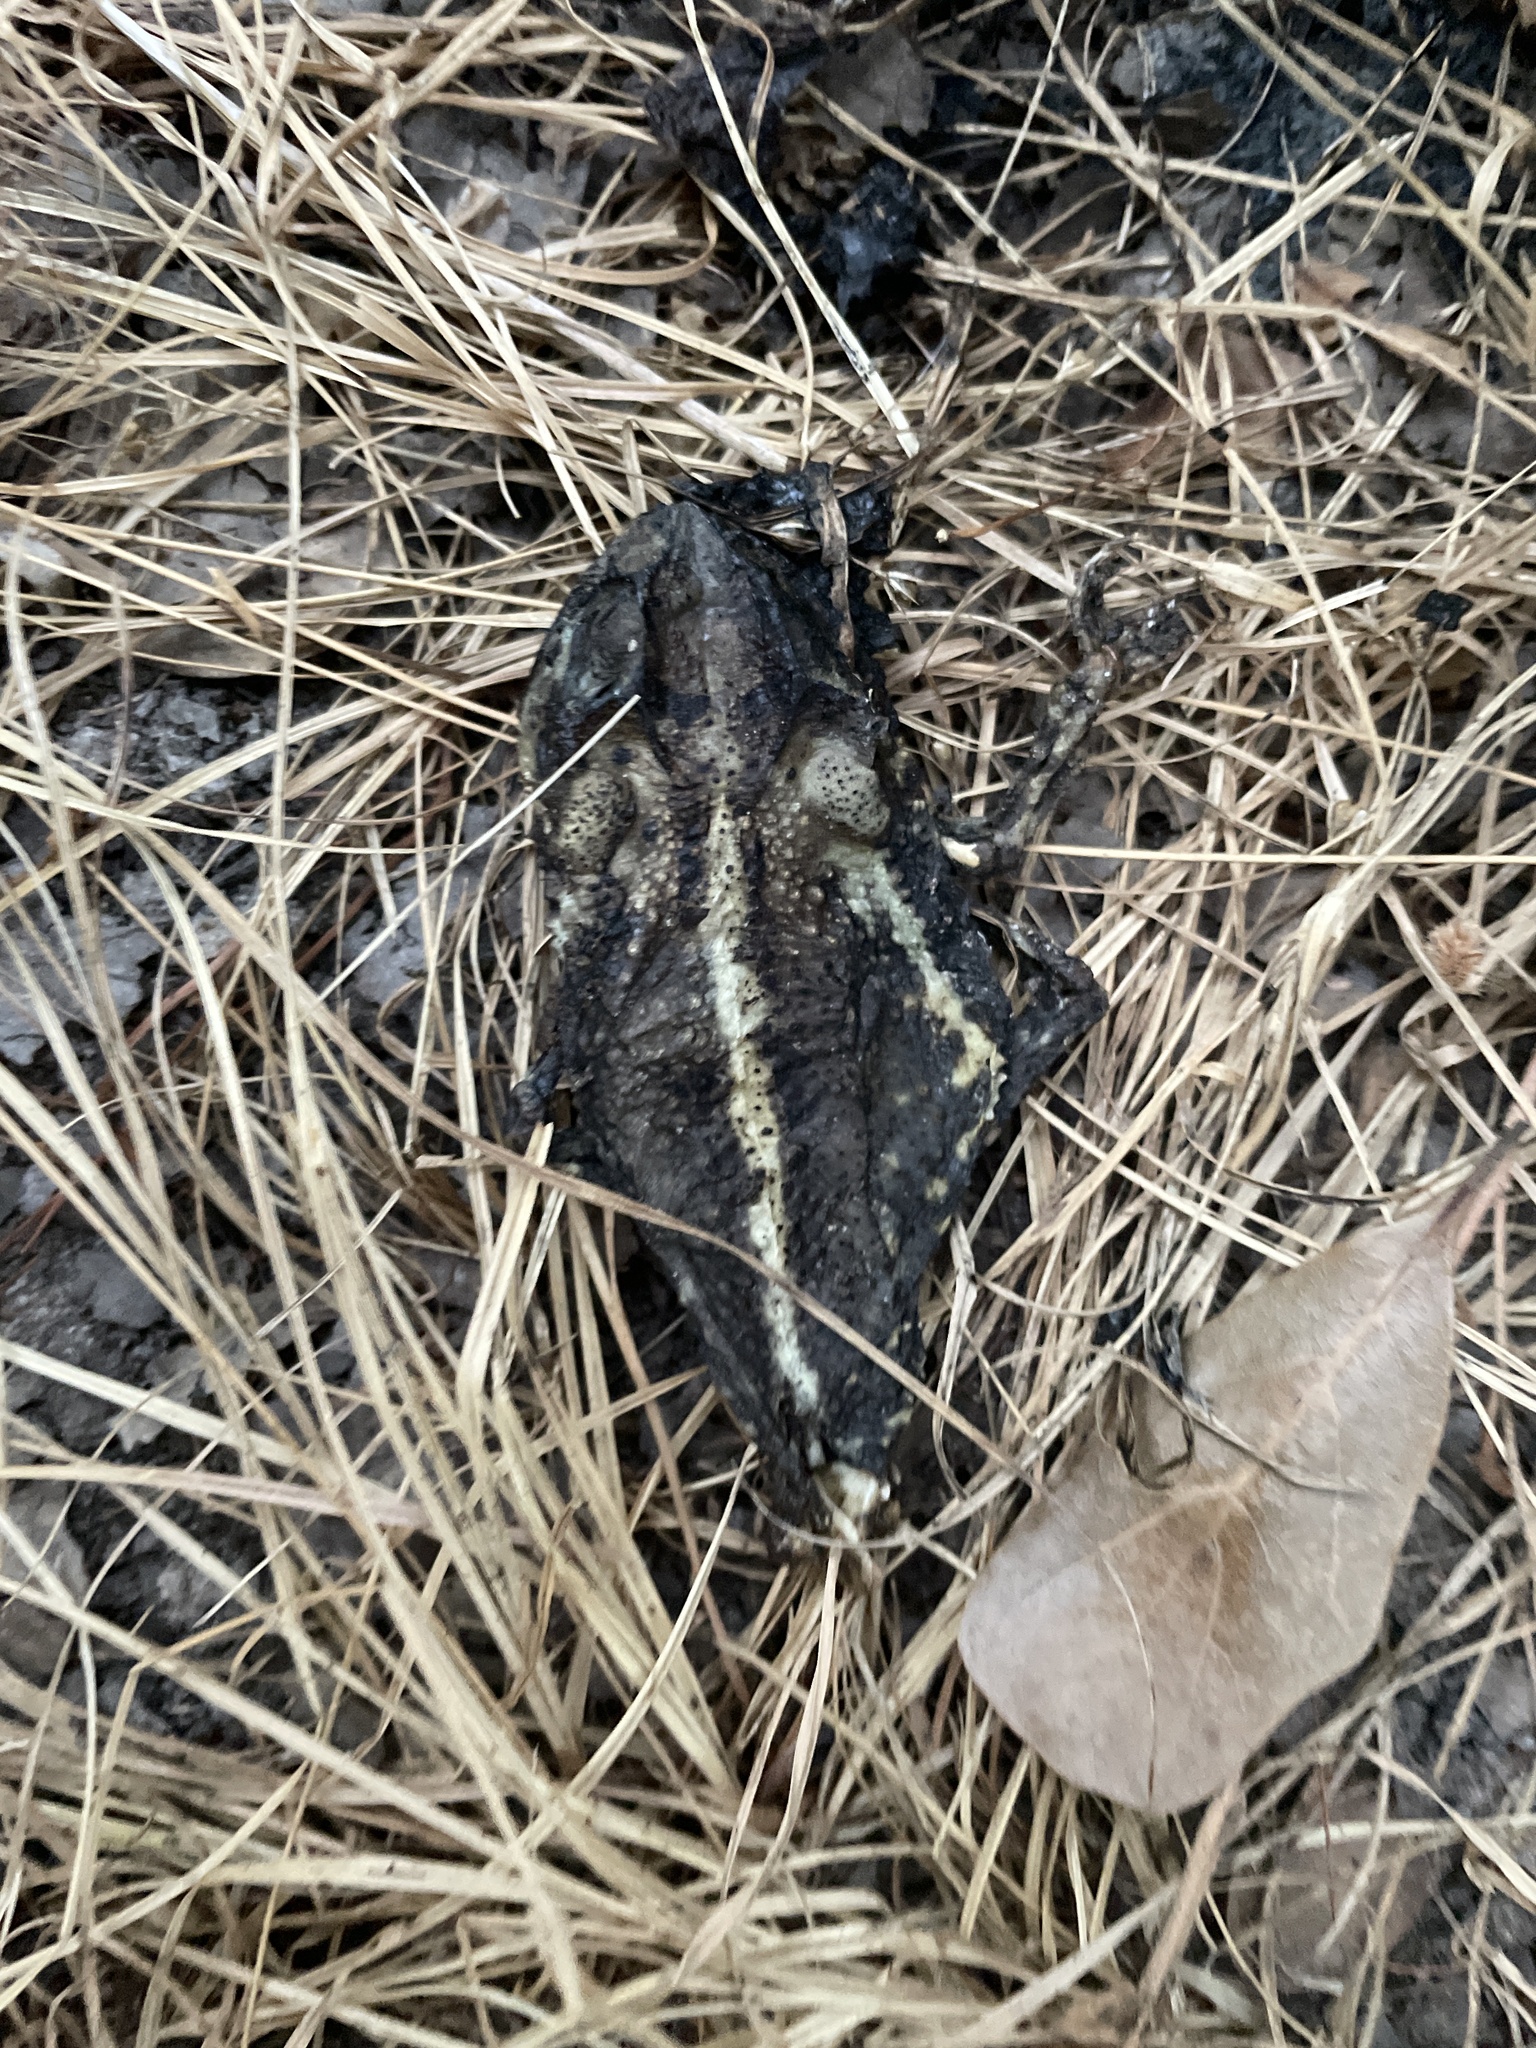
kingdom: Animalia
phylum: Chordata
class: Amphibia
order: Anura
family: Bufonidae
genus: Incilius
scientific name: Incilius nebulifer
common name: Gulf coast toad
